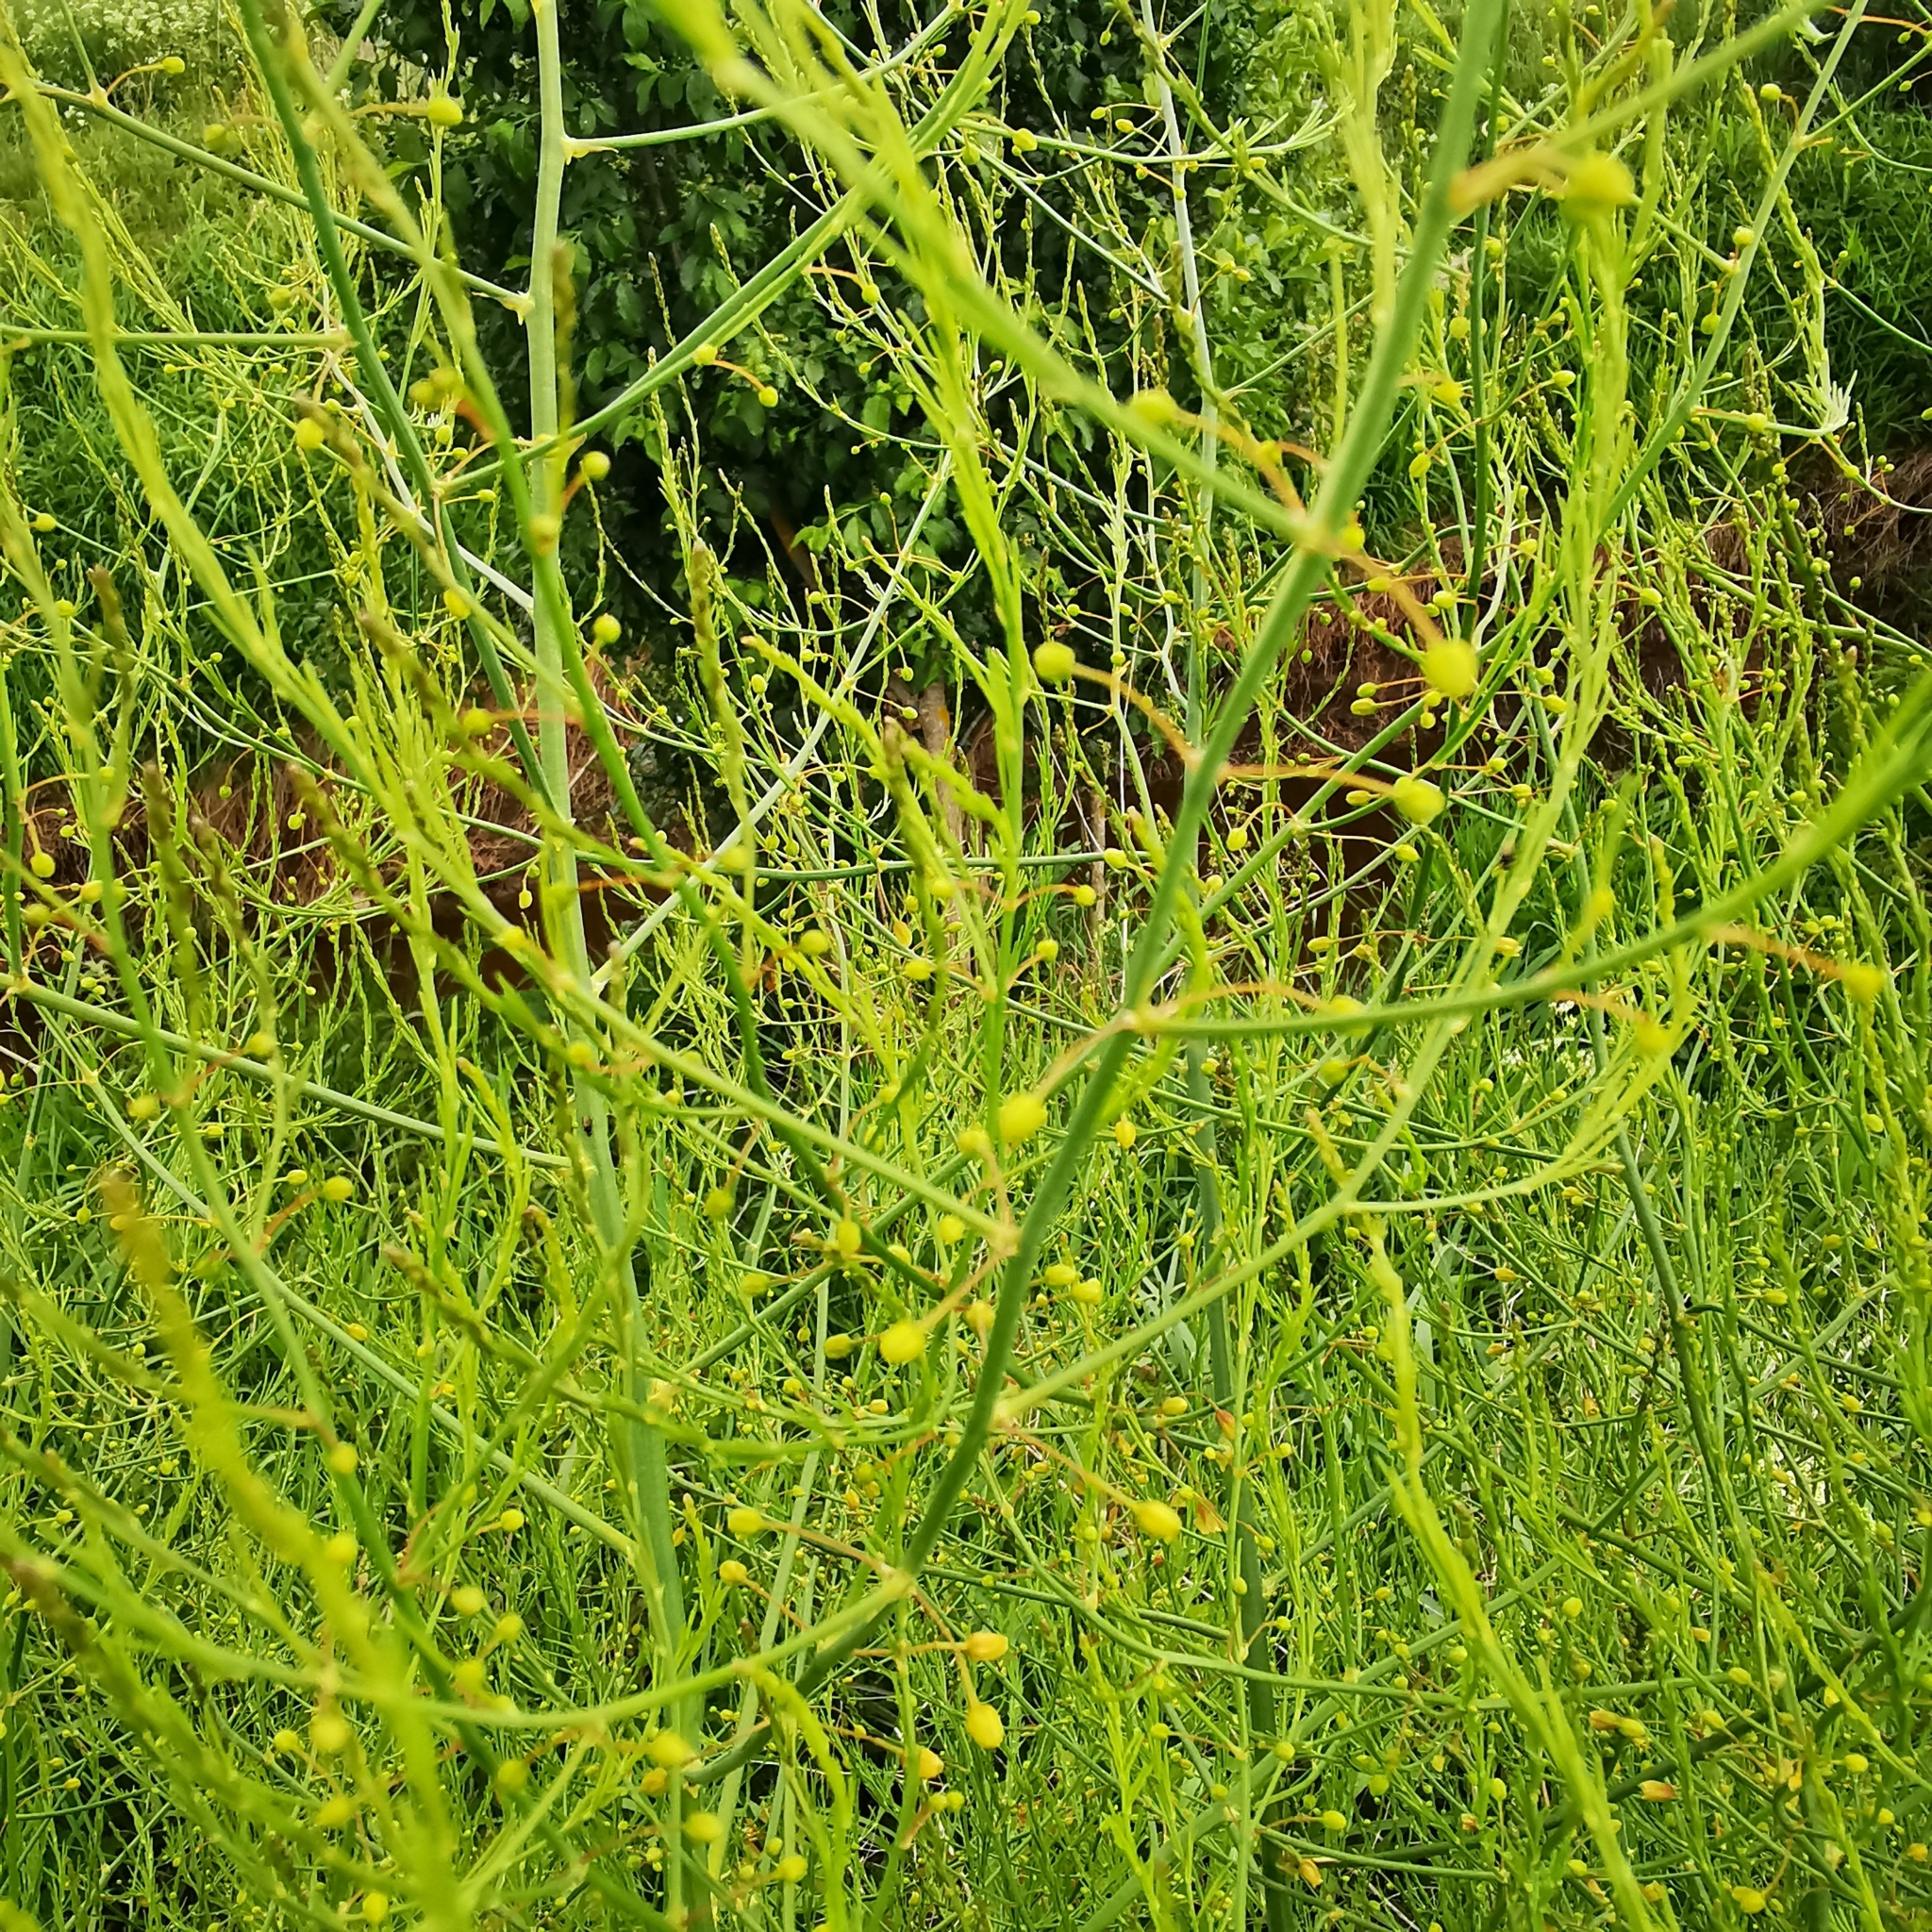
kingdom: Plantae
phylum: Tracheophyta
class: Liliopsida
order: Asparagales
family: Asparagaceae
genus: Asparagus
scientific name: Asparagus officinalis
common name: Garden asparagus
